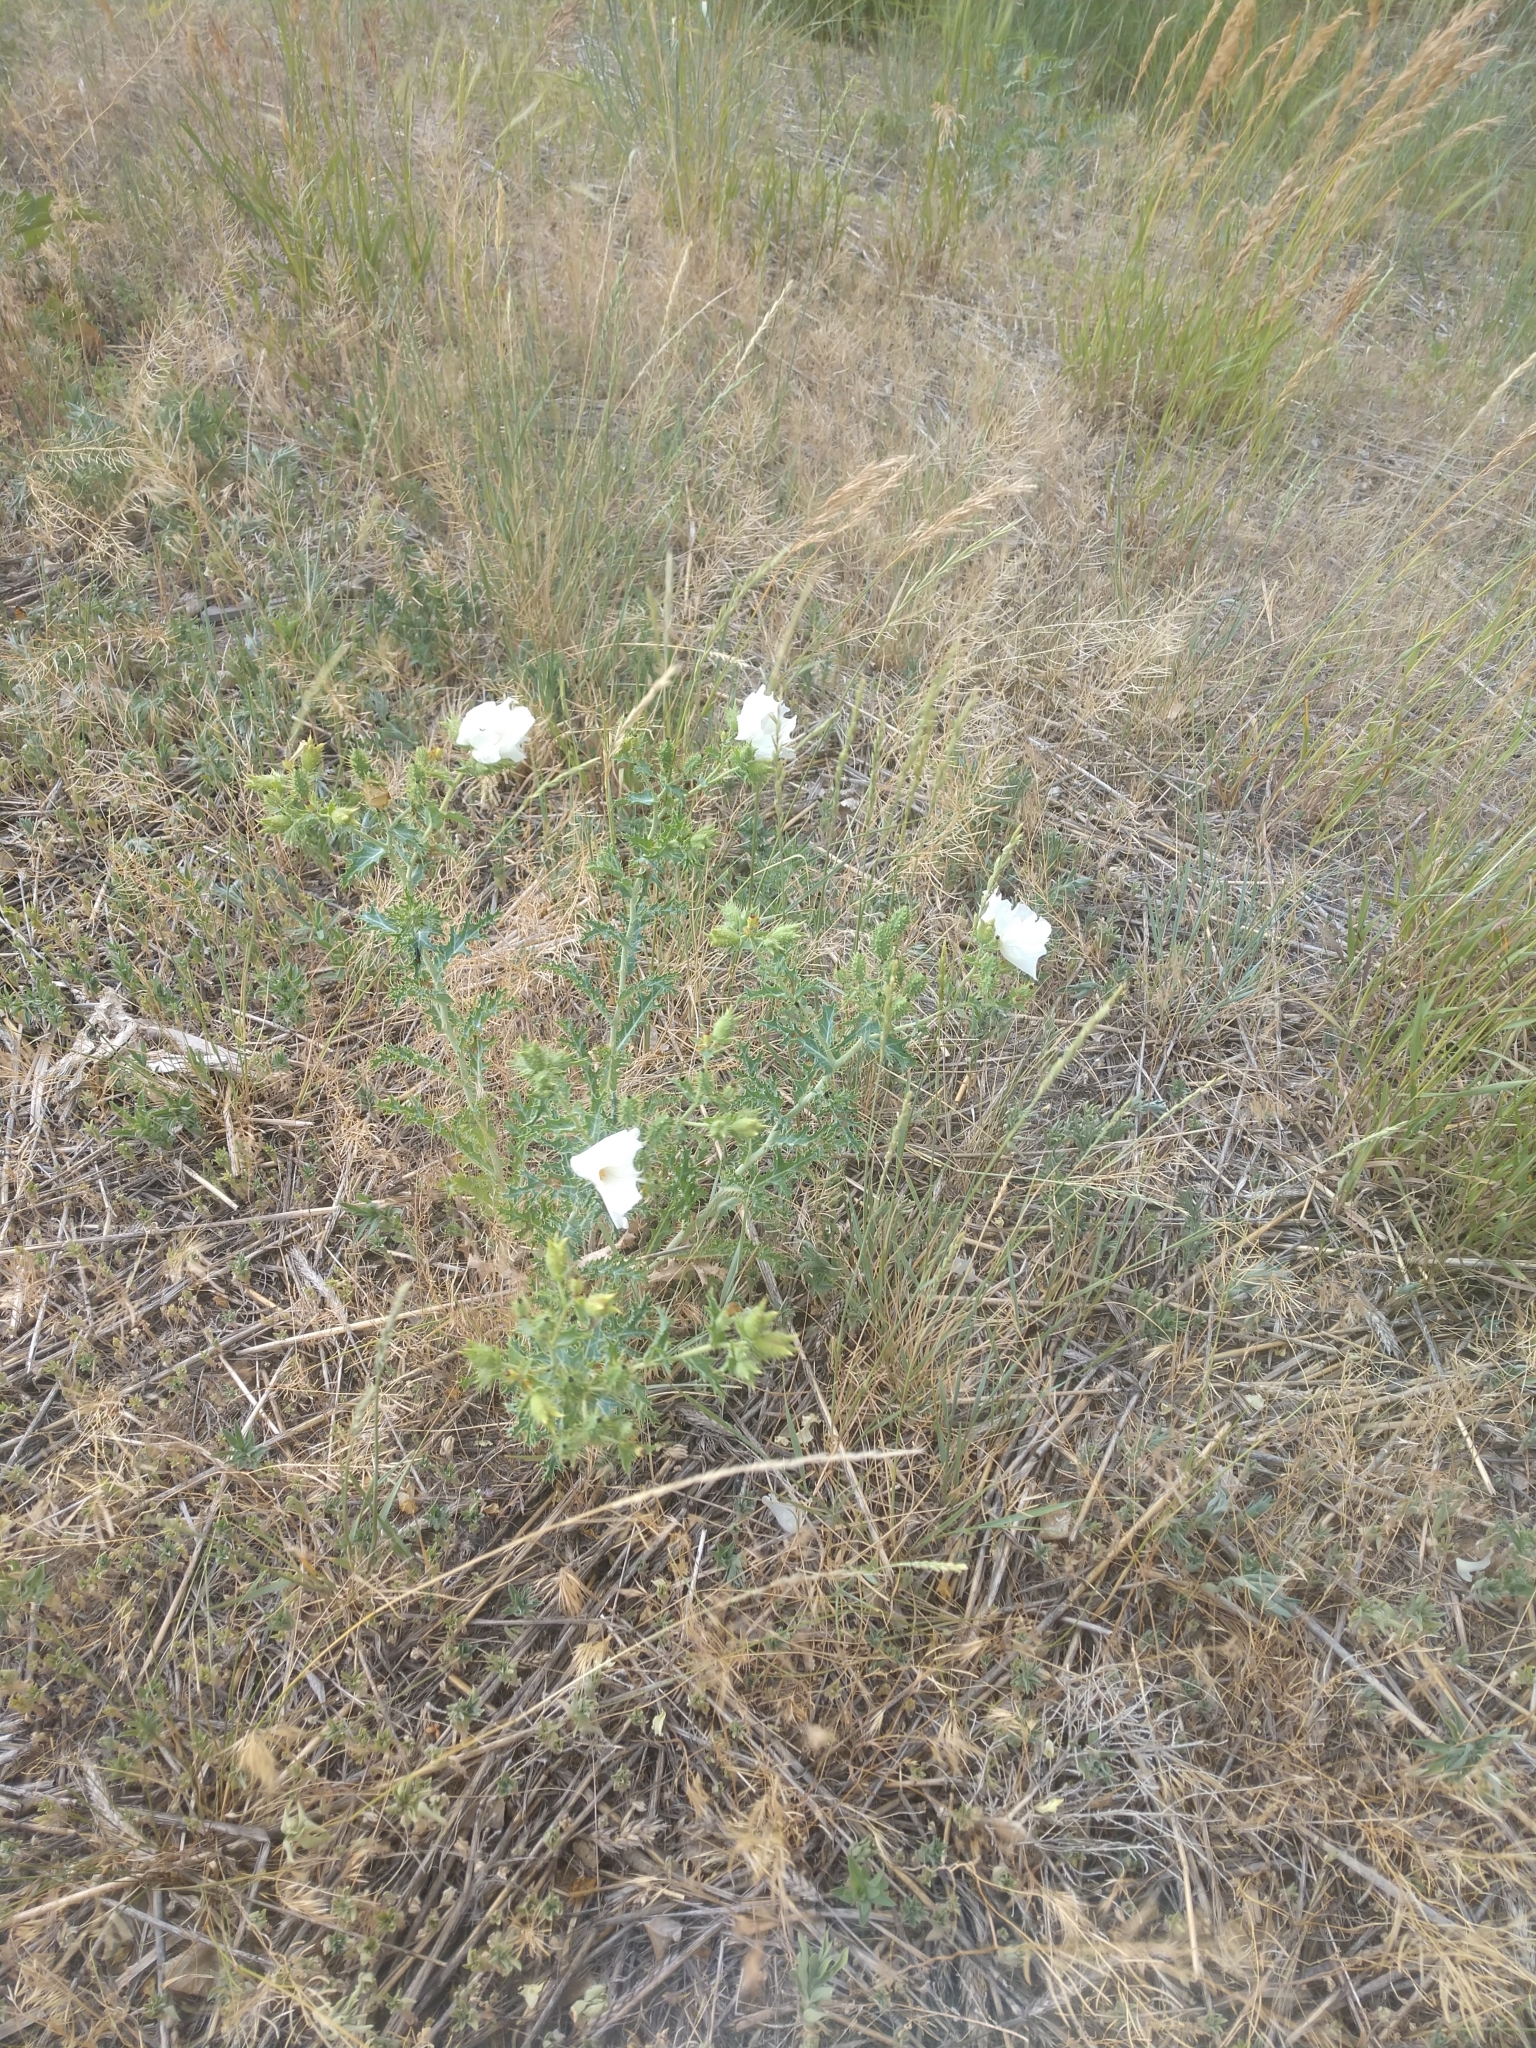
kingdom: Plantae
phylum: Tracheophyta
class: Magnoliopsida
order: Ranunculales
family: Papaveraceae
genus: Argemone
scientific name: Argemone polyanthemos
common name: Plains prickly-poppy
